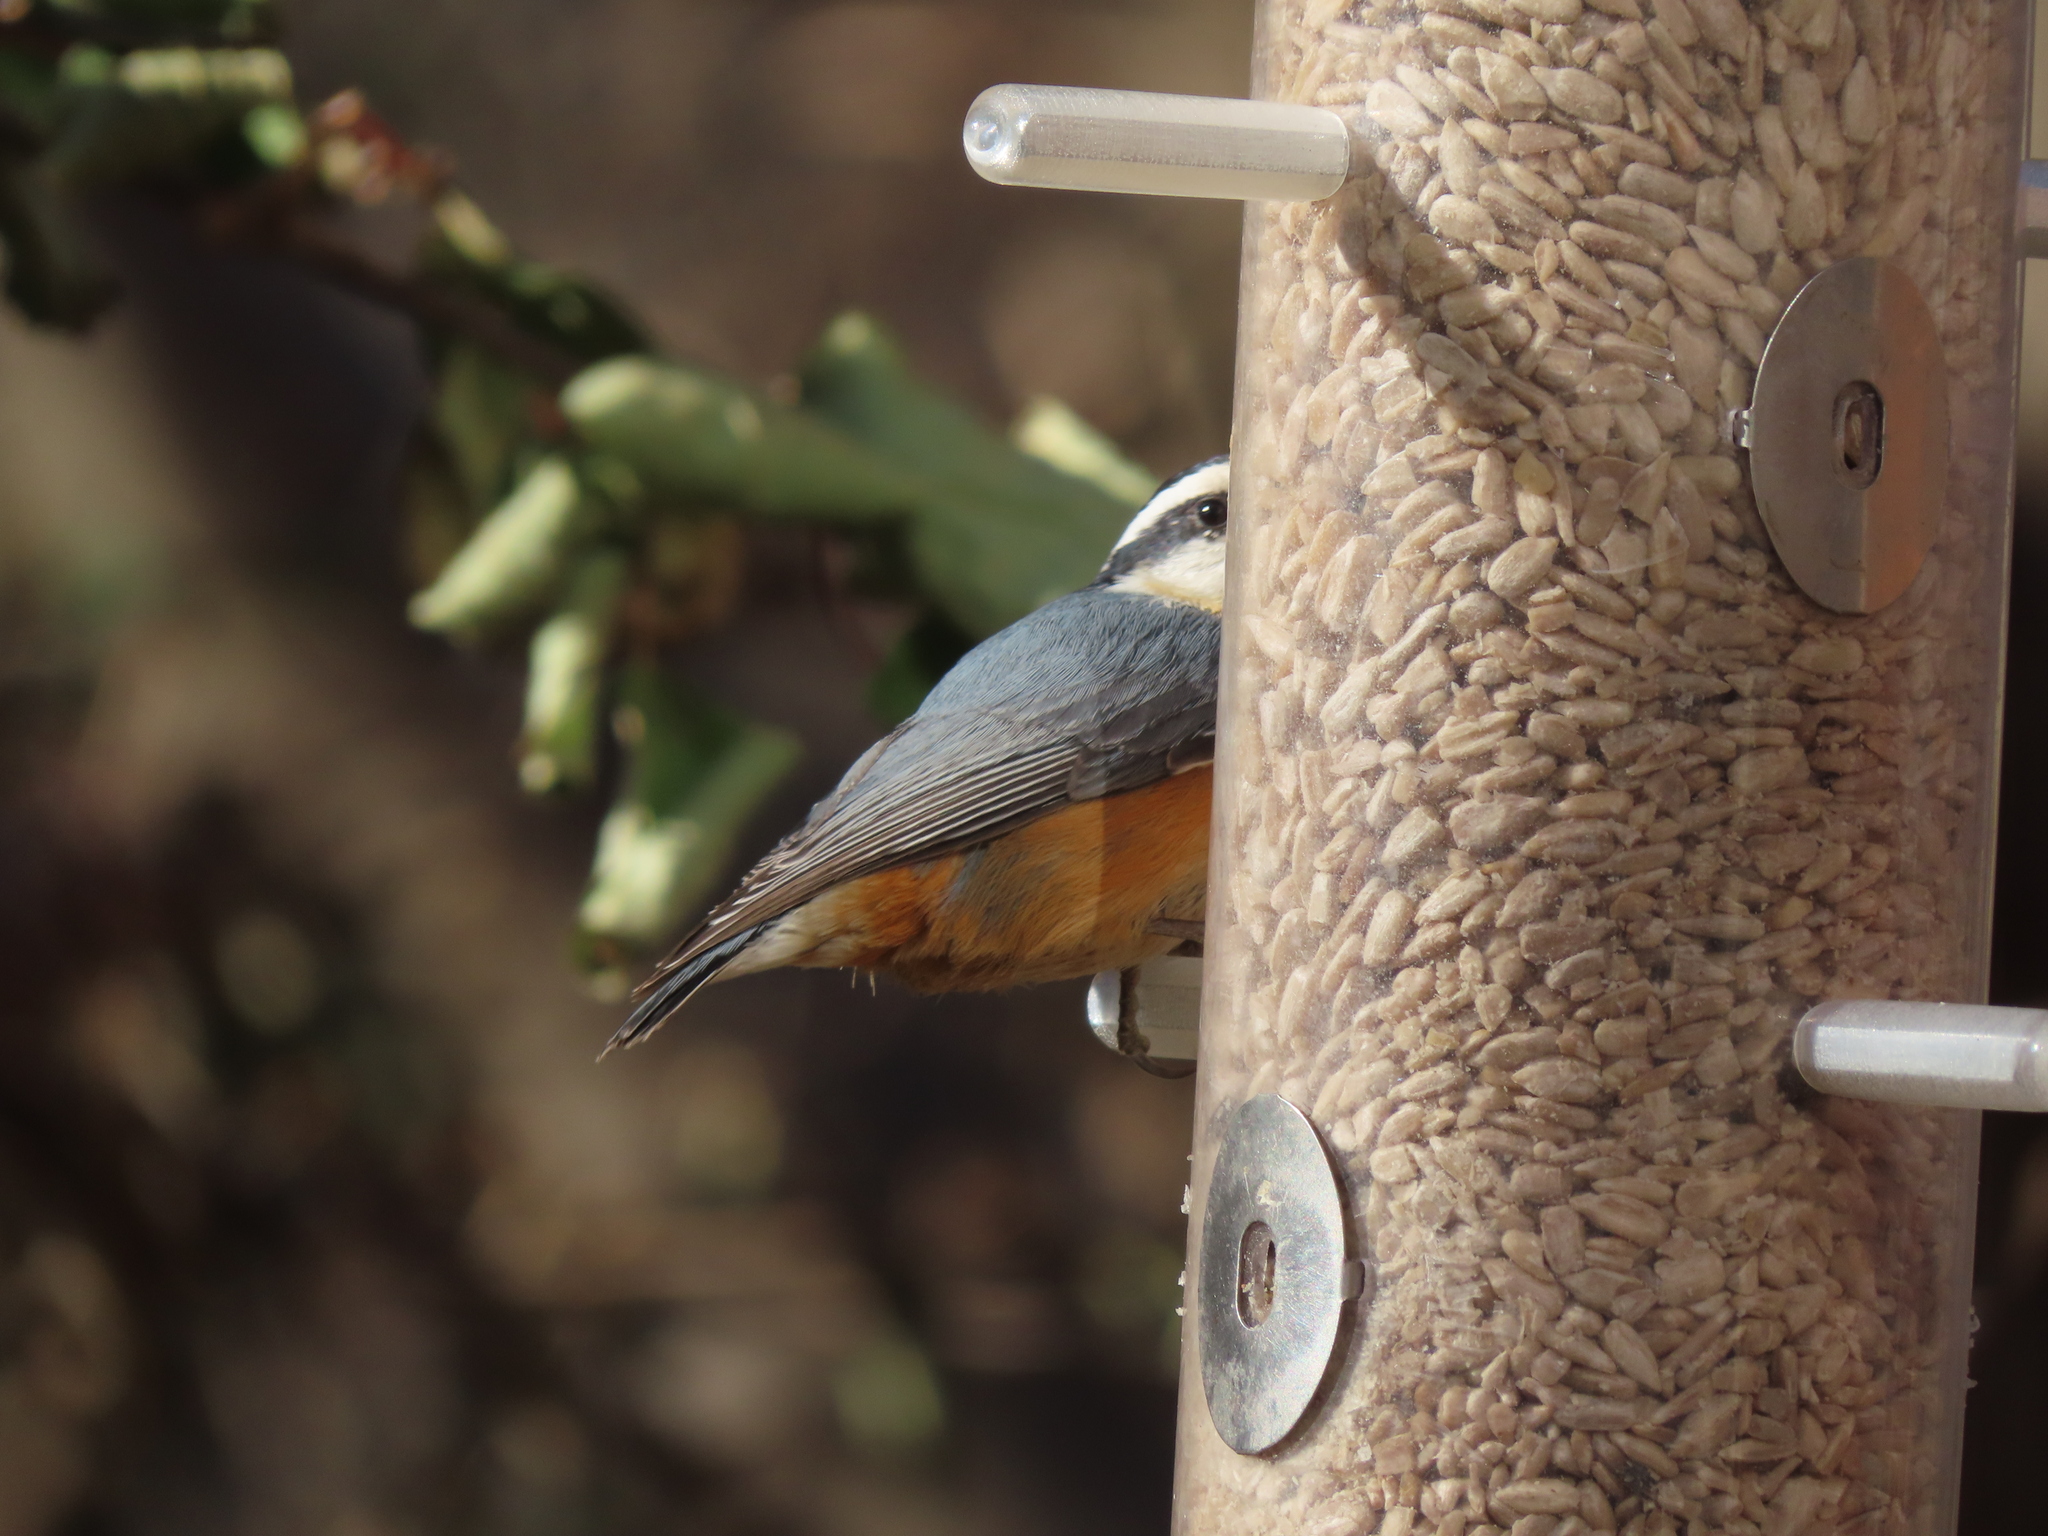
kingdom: Animalia
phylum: Chordata
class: Aves
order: Passeriformes
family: Sittidae
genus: Sitta
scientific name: Sitta canadensis
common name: Red-breasted nuthatch
